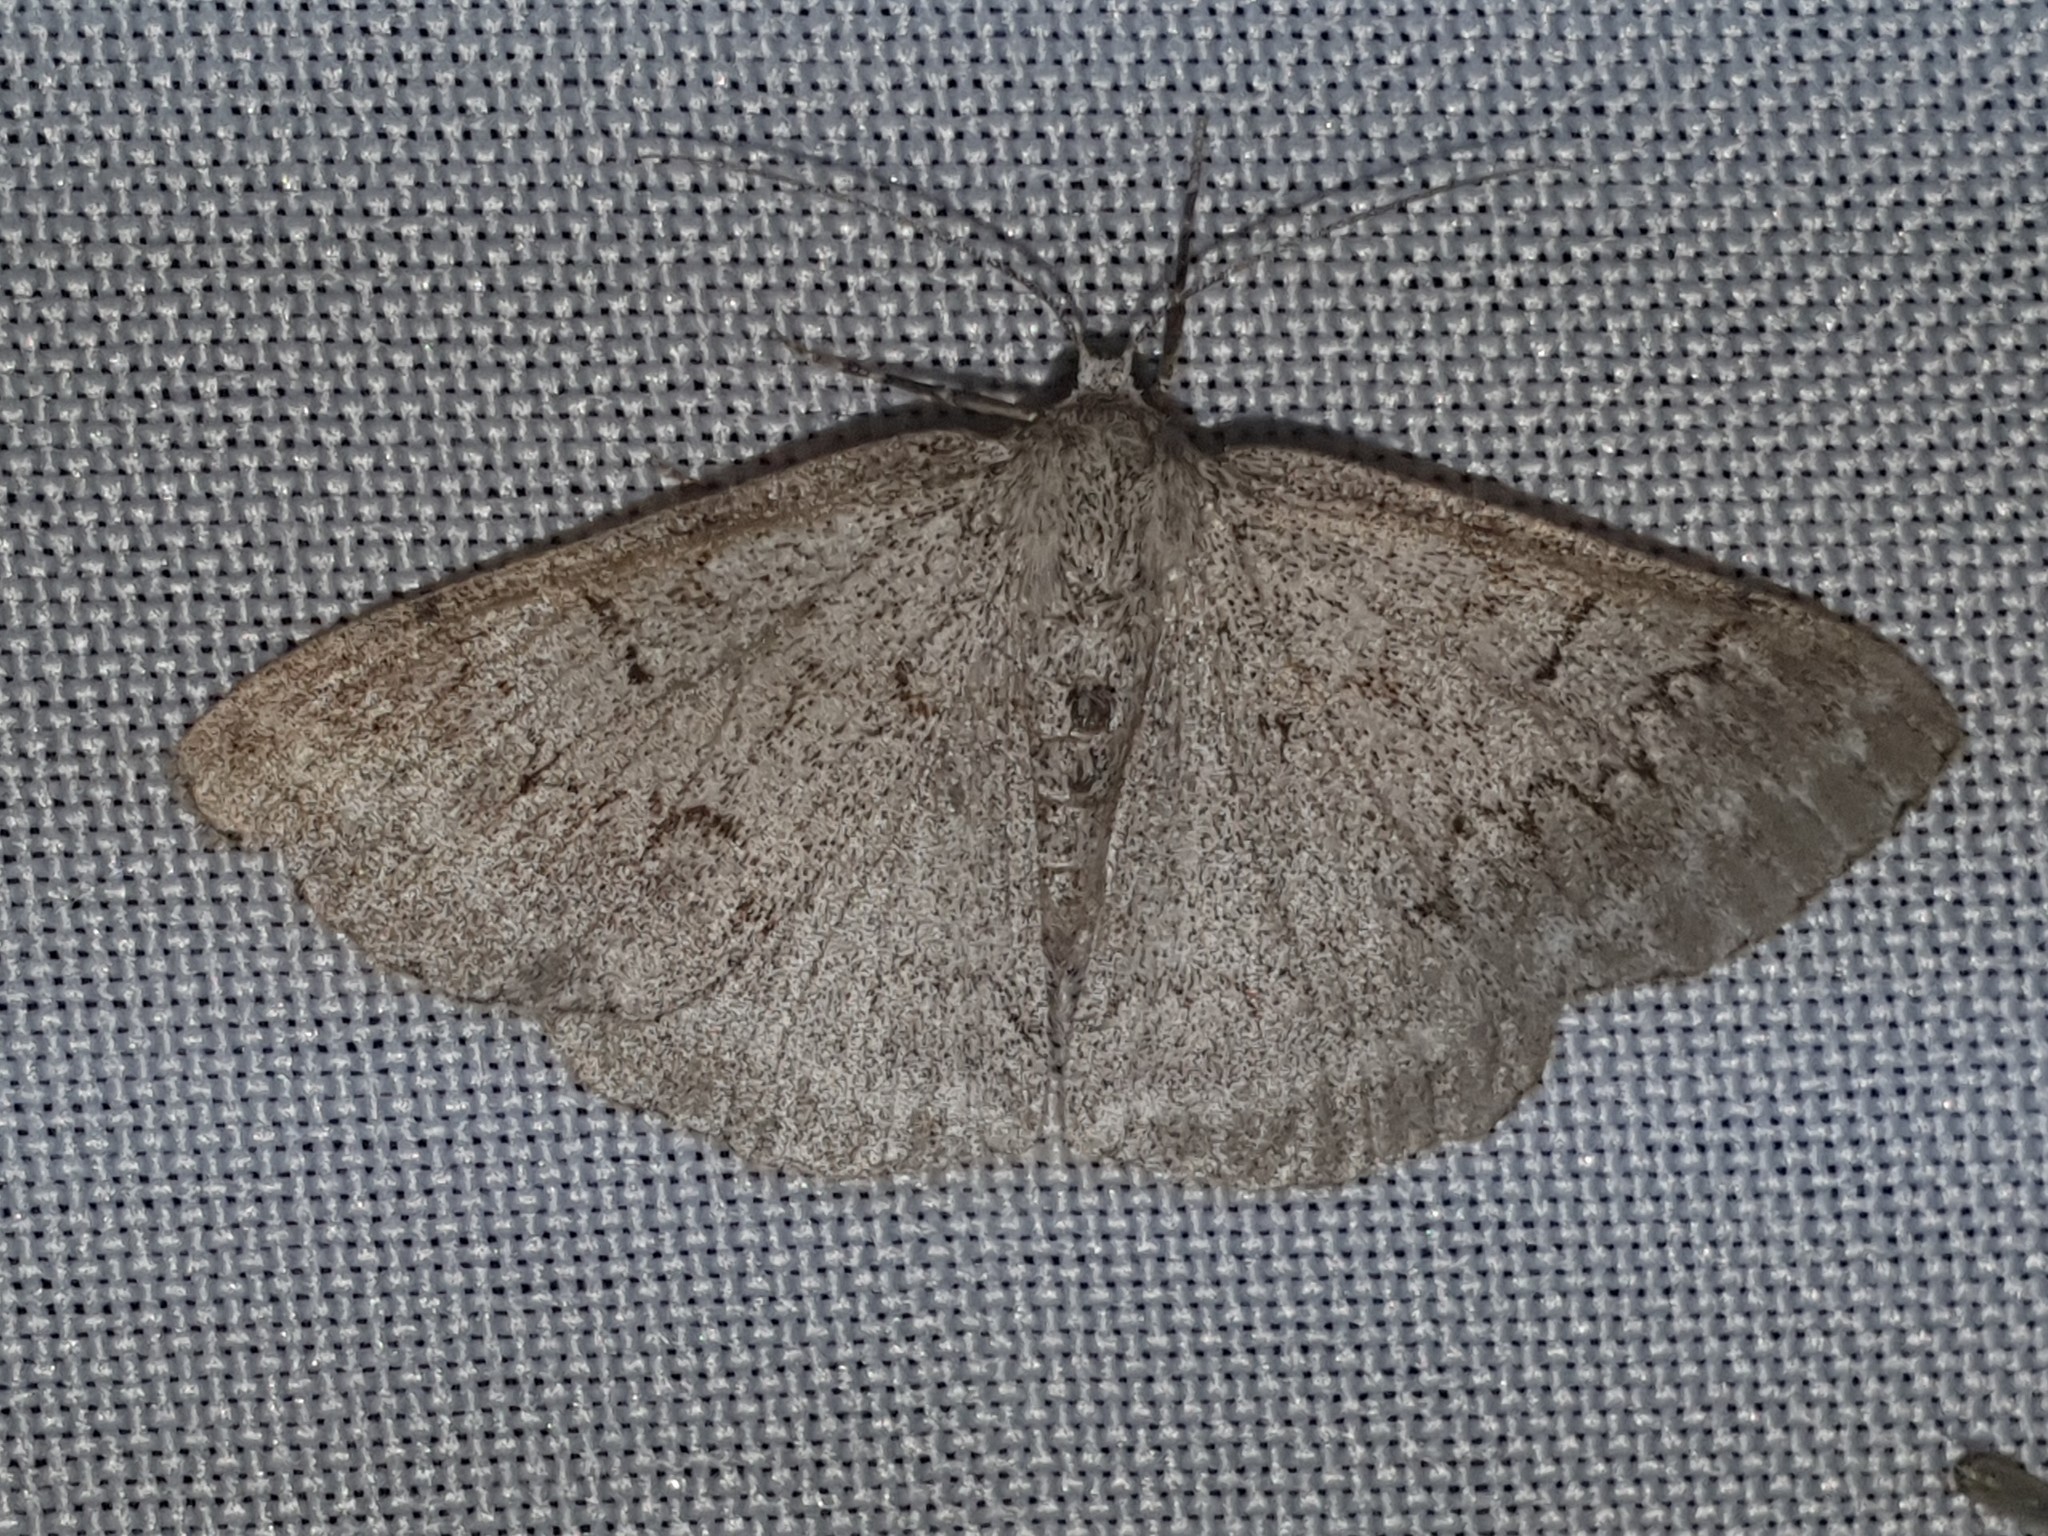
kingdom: Animalia
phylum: Arthropoda
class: Insecta
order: Lepidoptera
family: Geometridae
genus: Pseudoterpna
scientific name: Pseudoterpna coronillaria
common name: Jersey emerald
